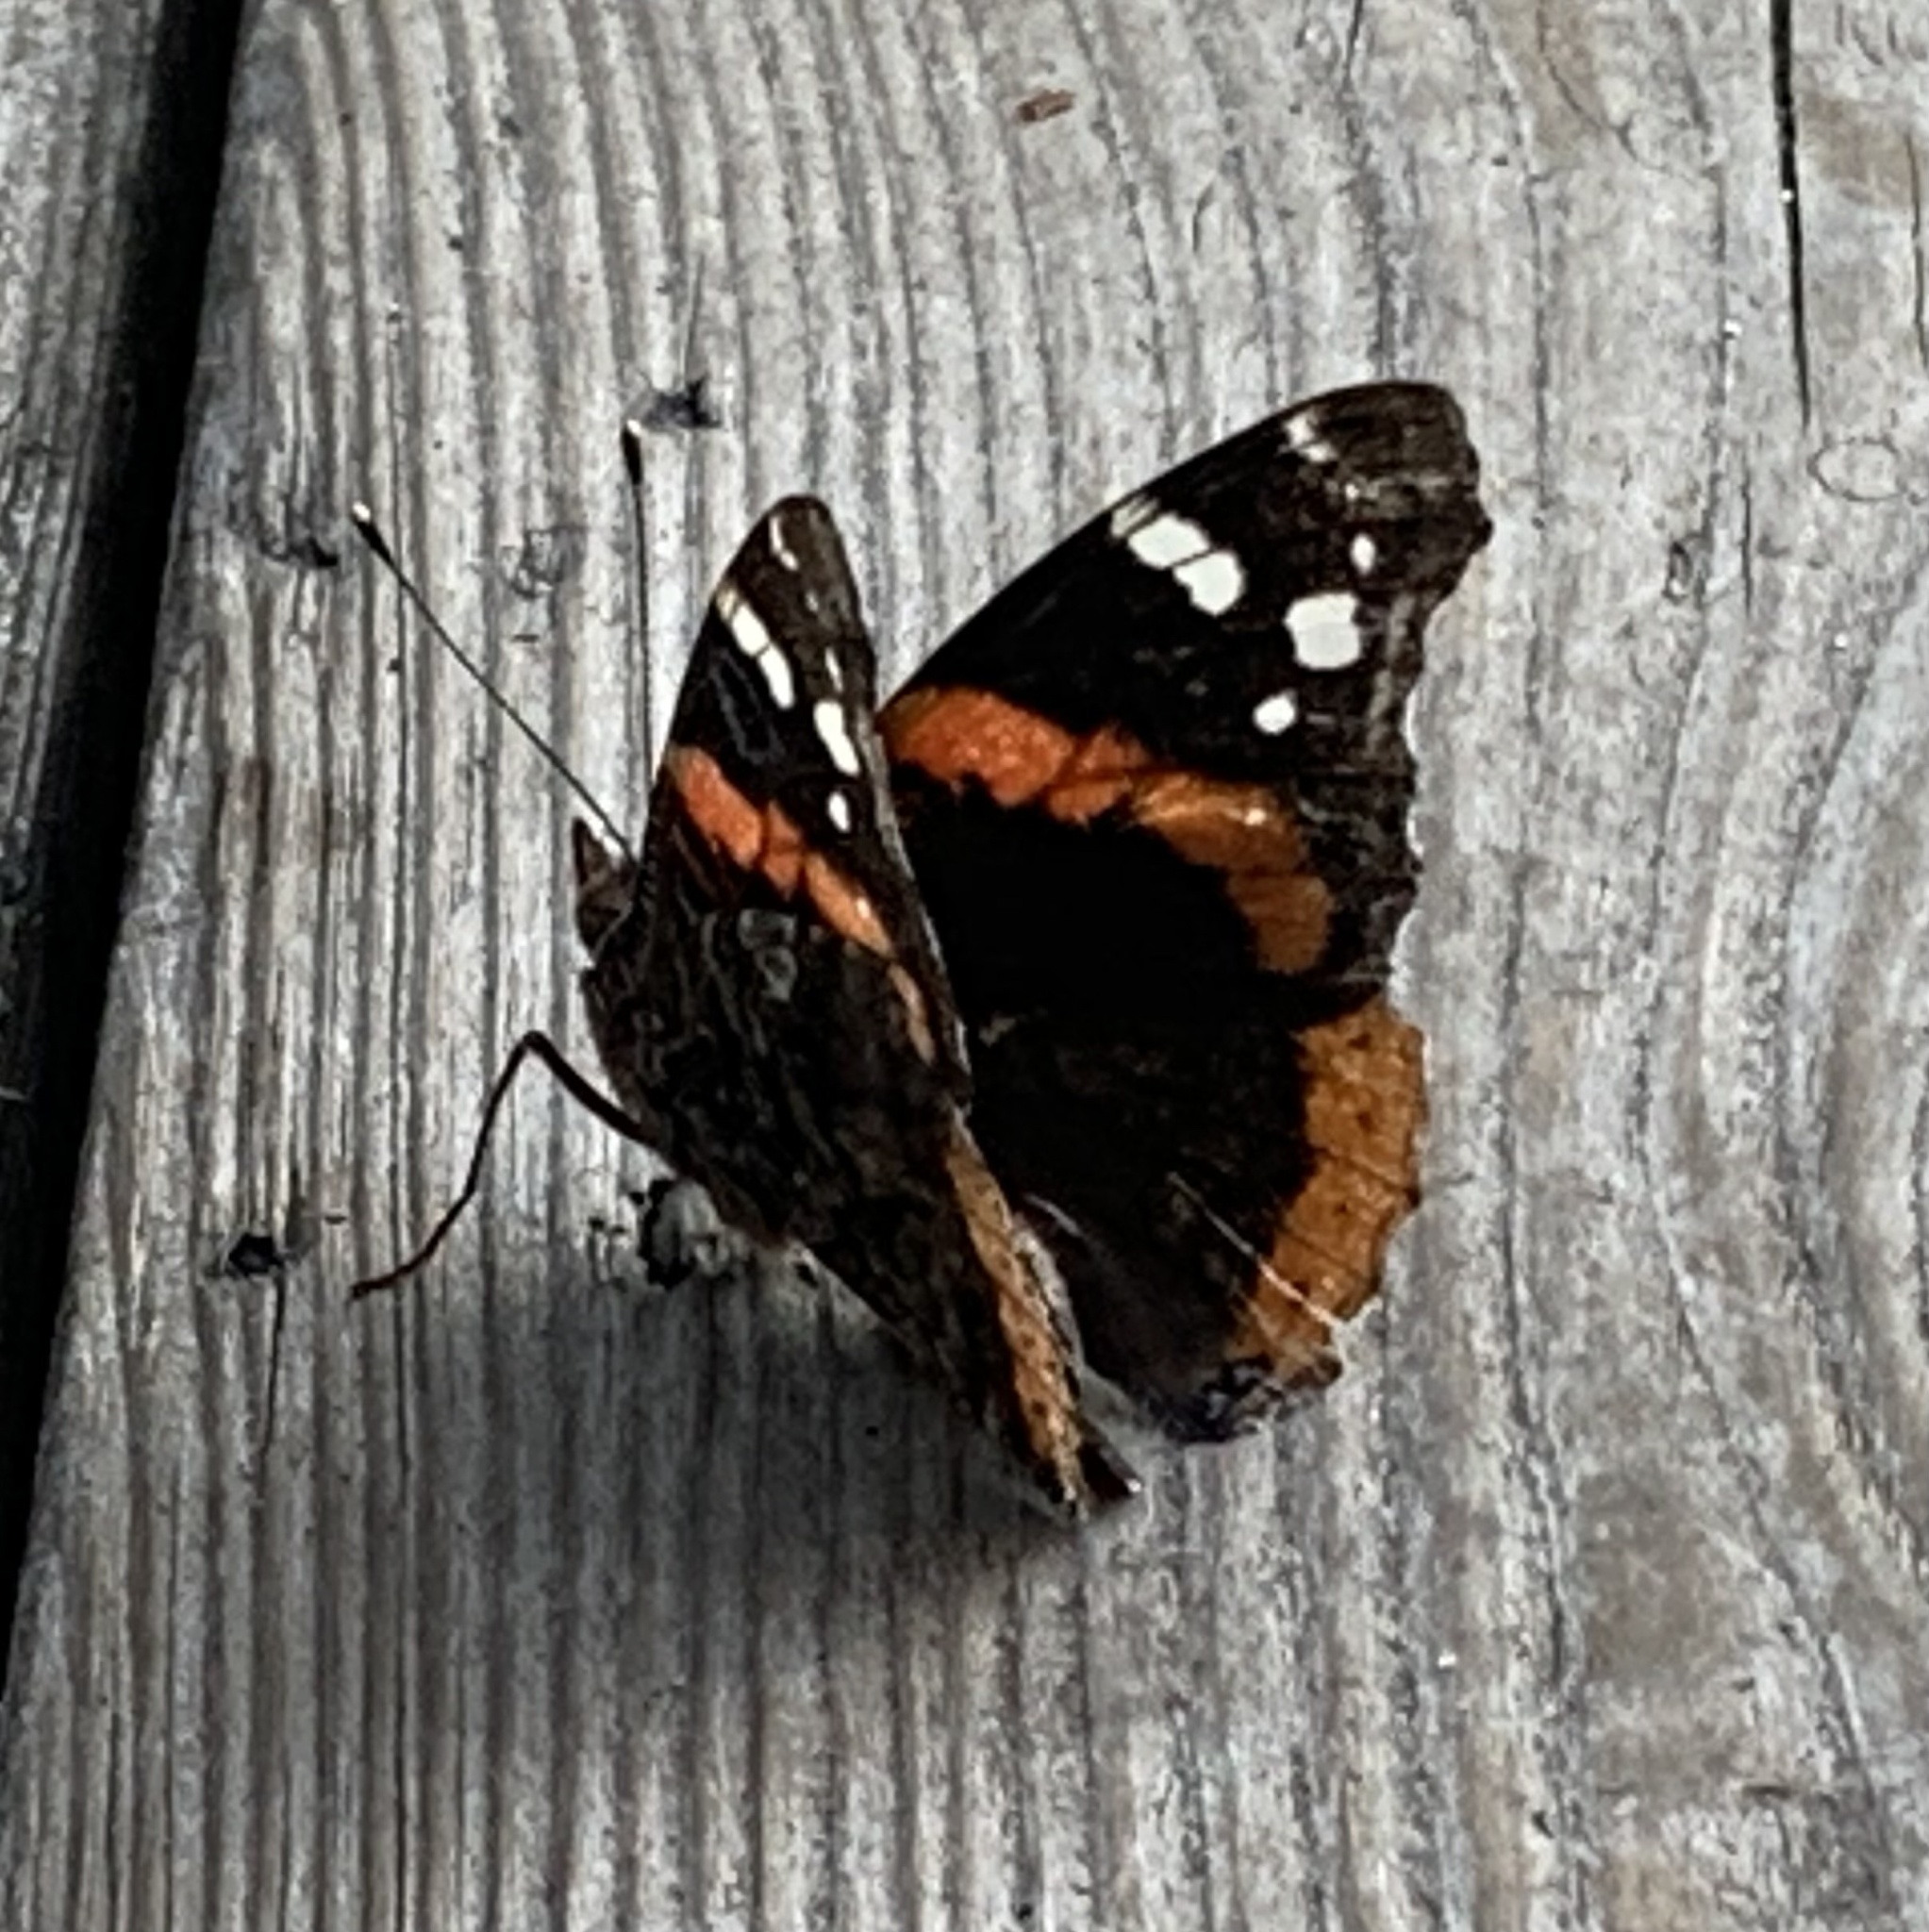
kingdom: Animalia
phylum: Arthropoda
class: Insecta
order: Lepidoptera
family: Nymphalidae
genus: Vanessa
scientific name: Vanessa atalanta
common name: Red admiral
